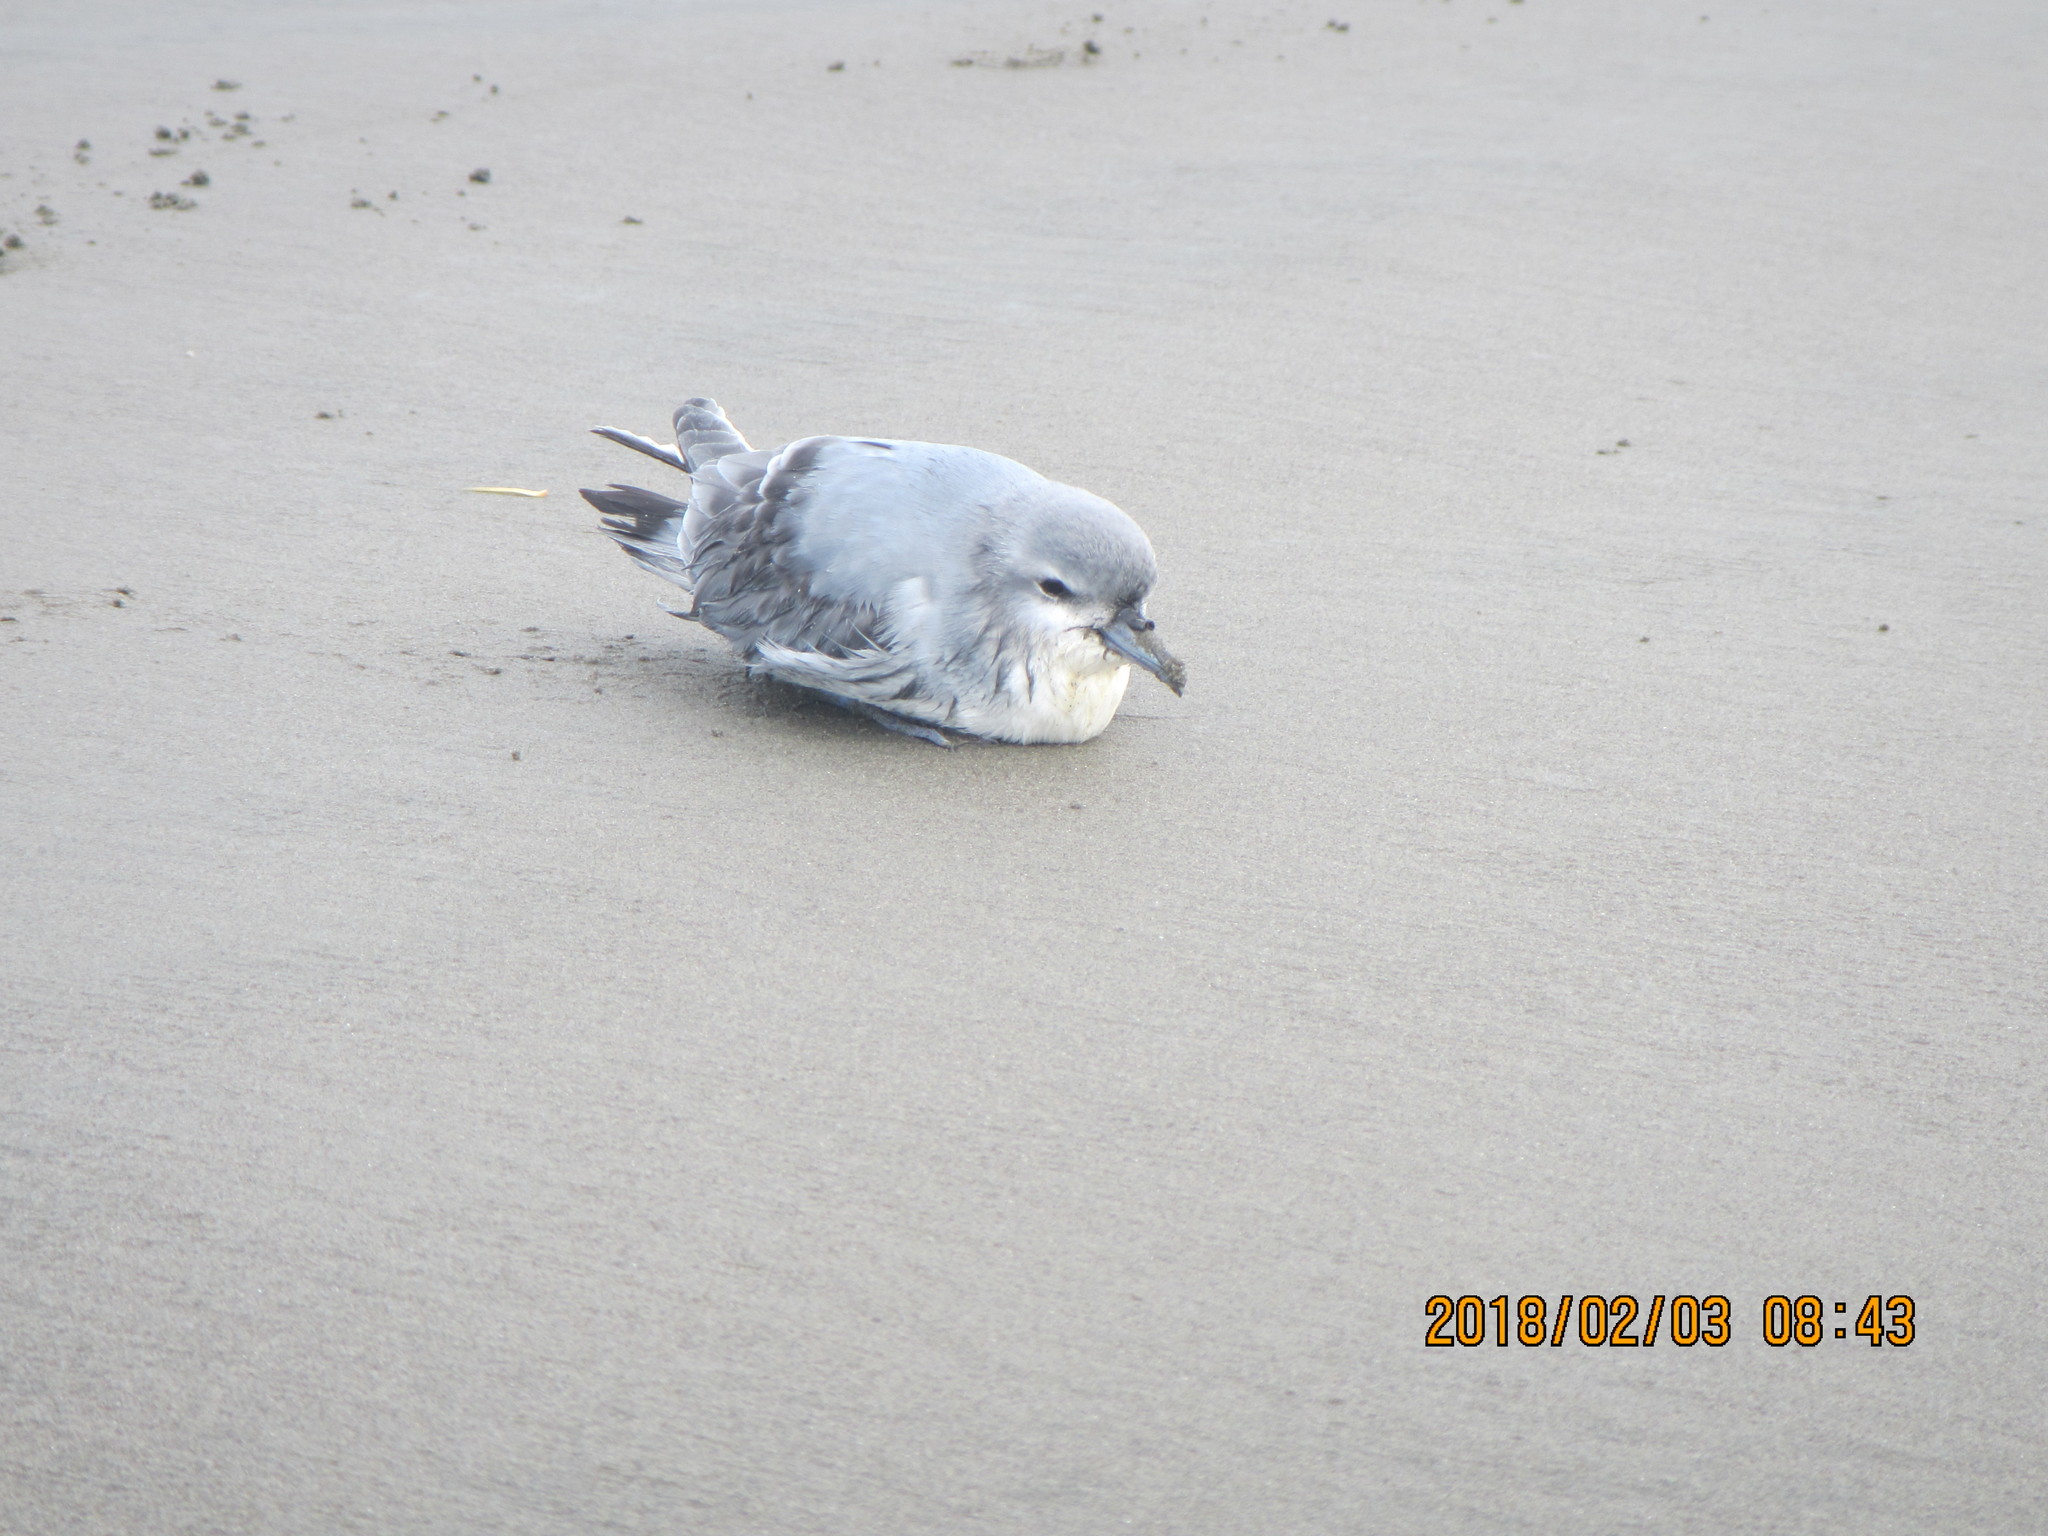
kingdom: Animalia
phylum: Chordata
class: Aves
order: Procellariiformes
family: Procellariidae
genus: Pachyptila
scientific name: Pachyptila turtur
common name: Fairy prion
